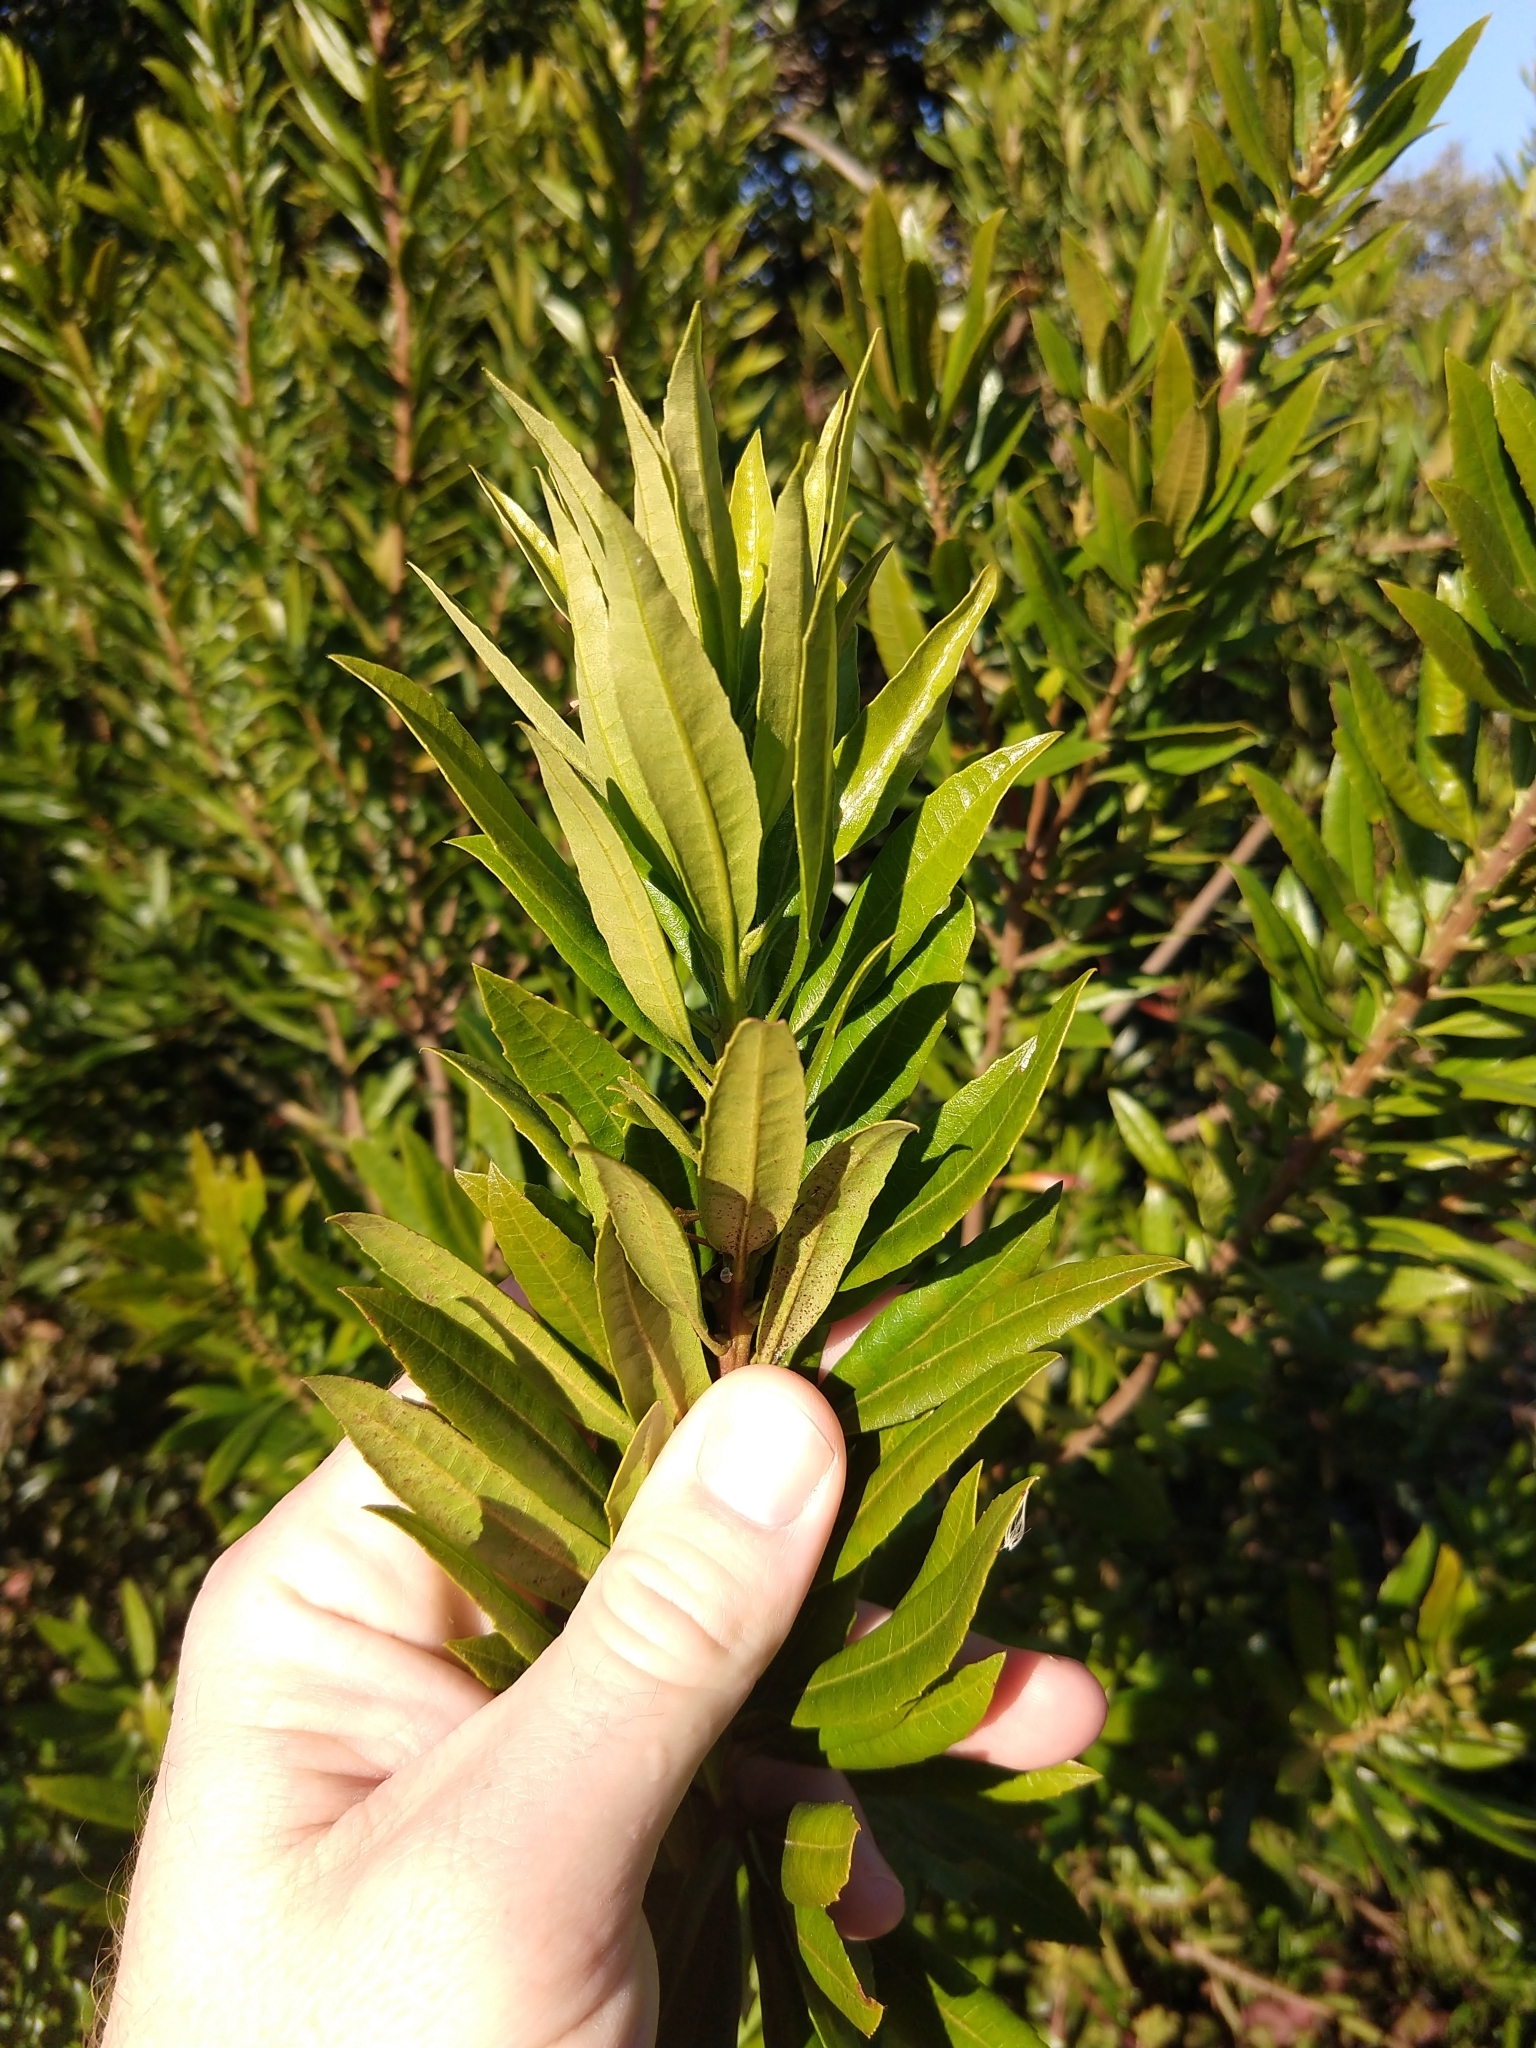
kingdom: Plantae
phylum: Tracheophyta
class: Magnoliopsida
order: Fagales
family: Myricaceae
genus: Morella
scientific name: Morella californica
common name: California wax-myrtle
